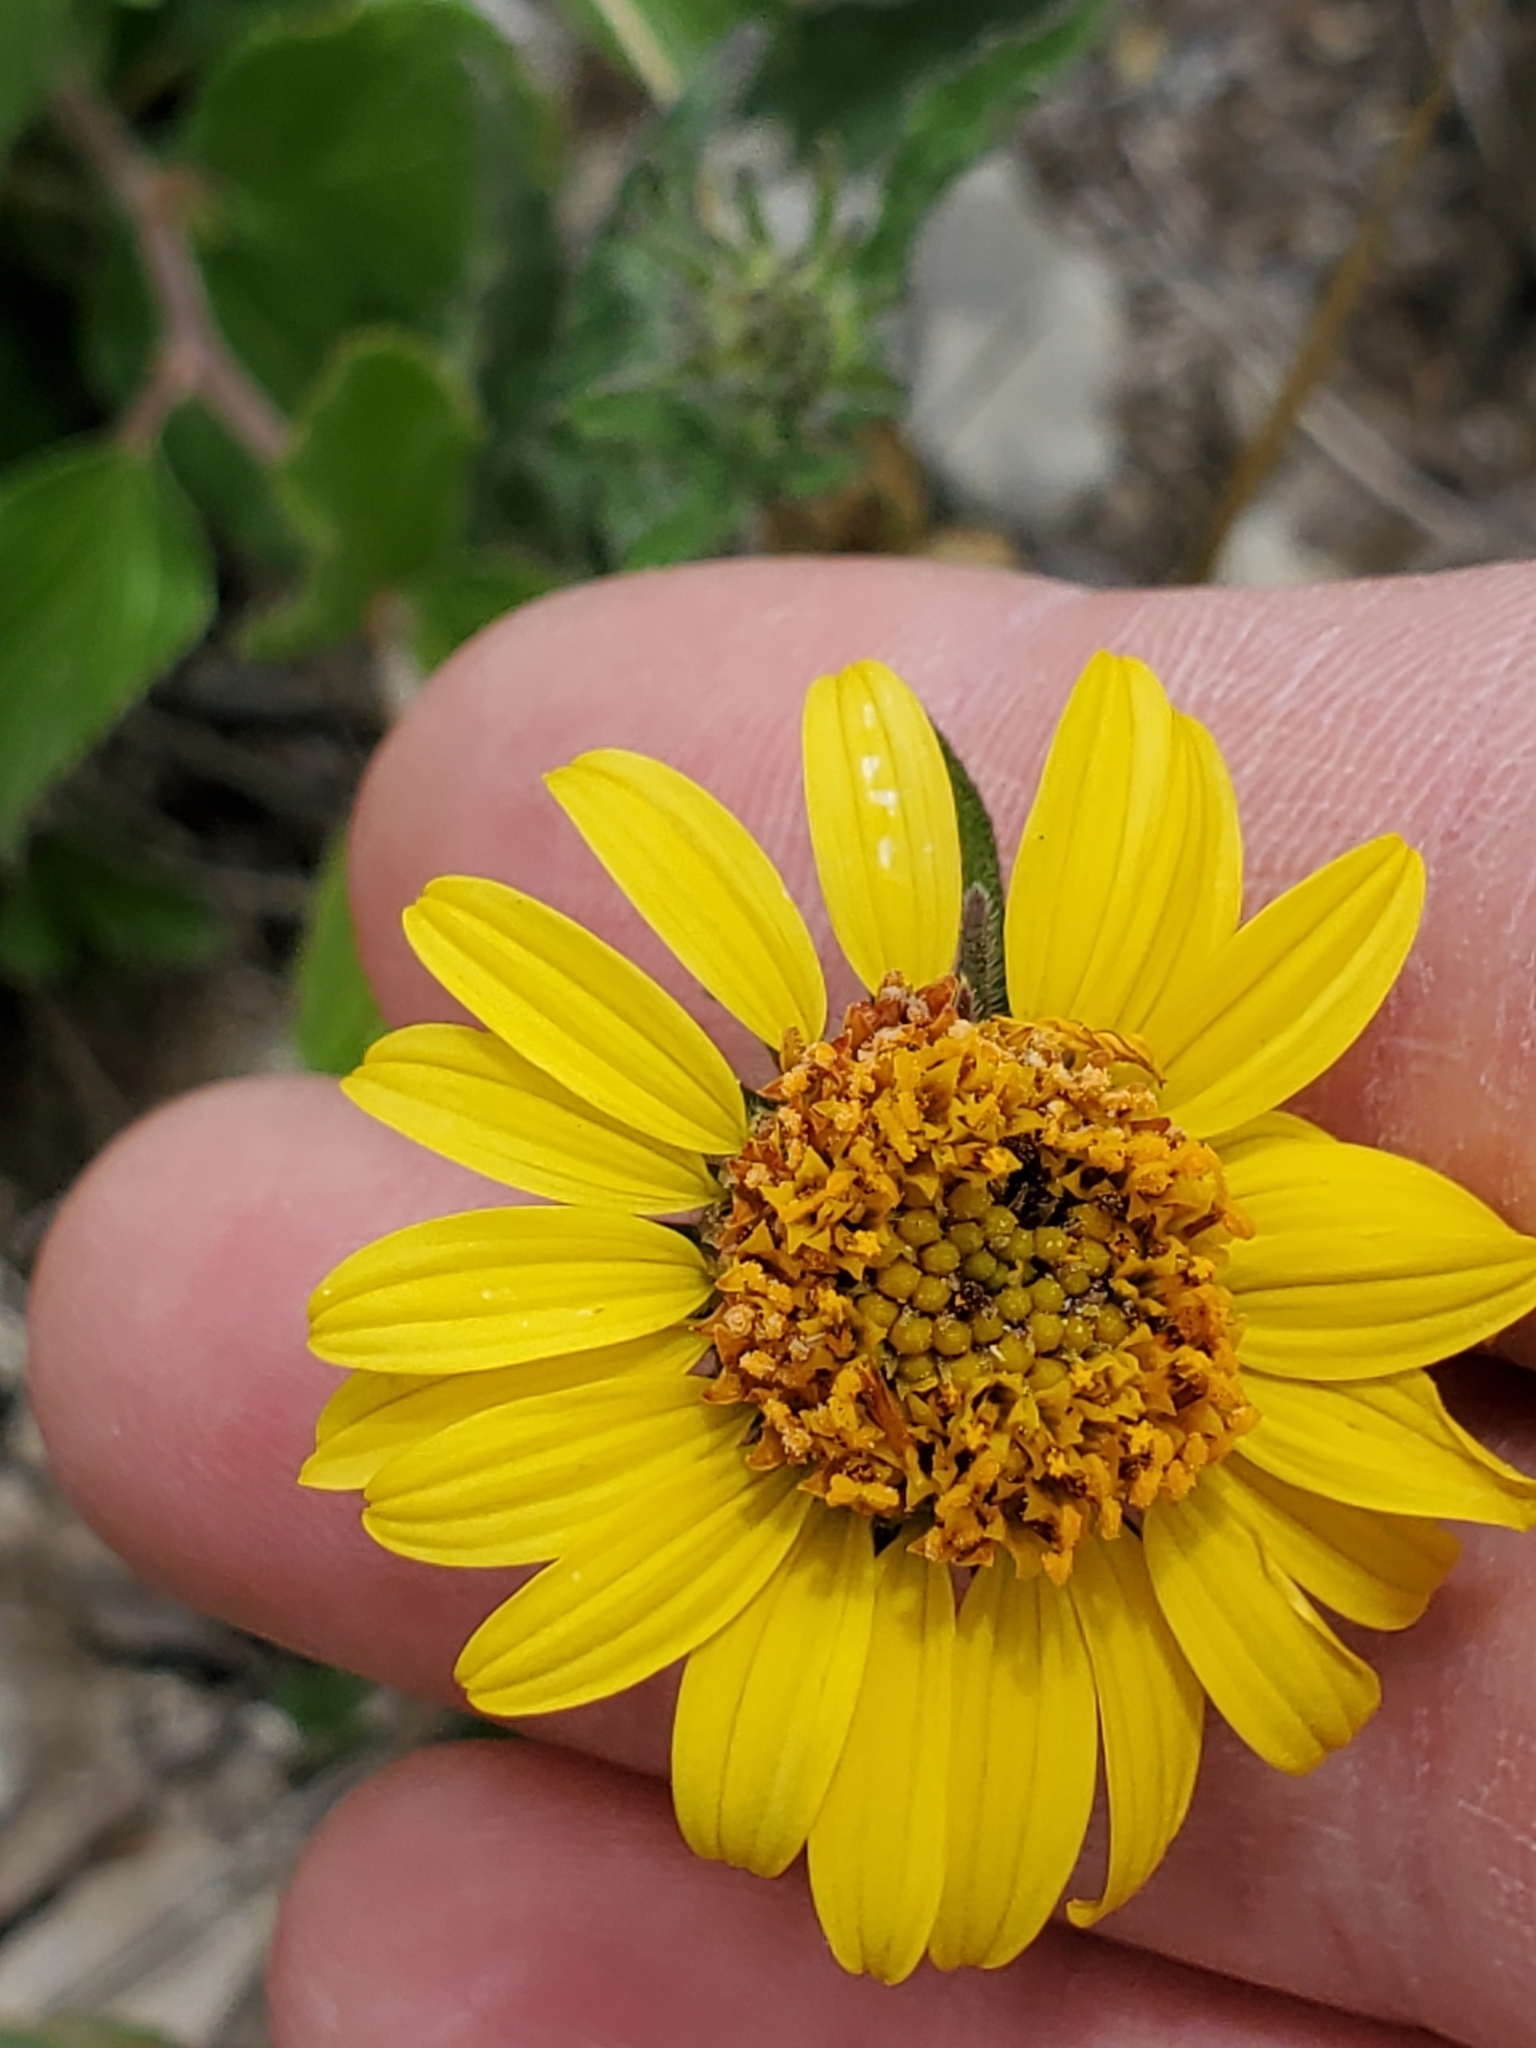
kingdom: Plantae
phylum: Tracheophyta
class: Magnoliopsida
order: Asterales
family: Asteraceae
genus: Simsia
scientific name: Simsia calva
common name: Awnless bush-sunflower
